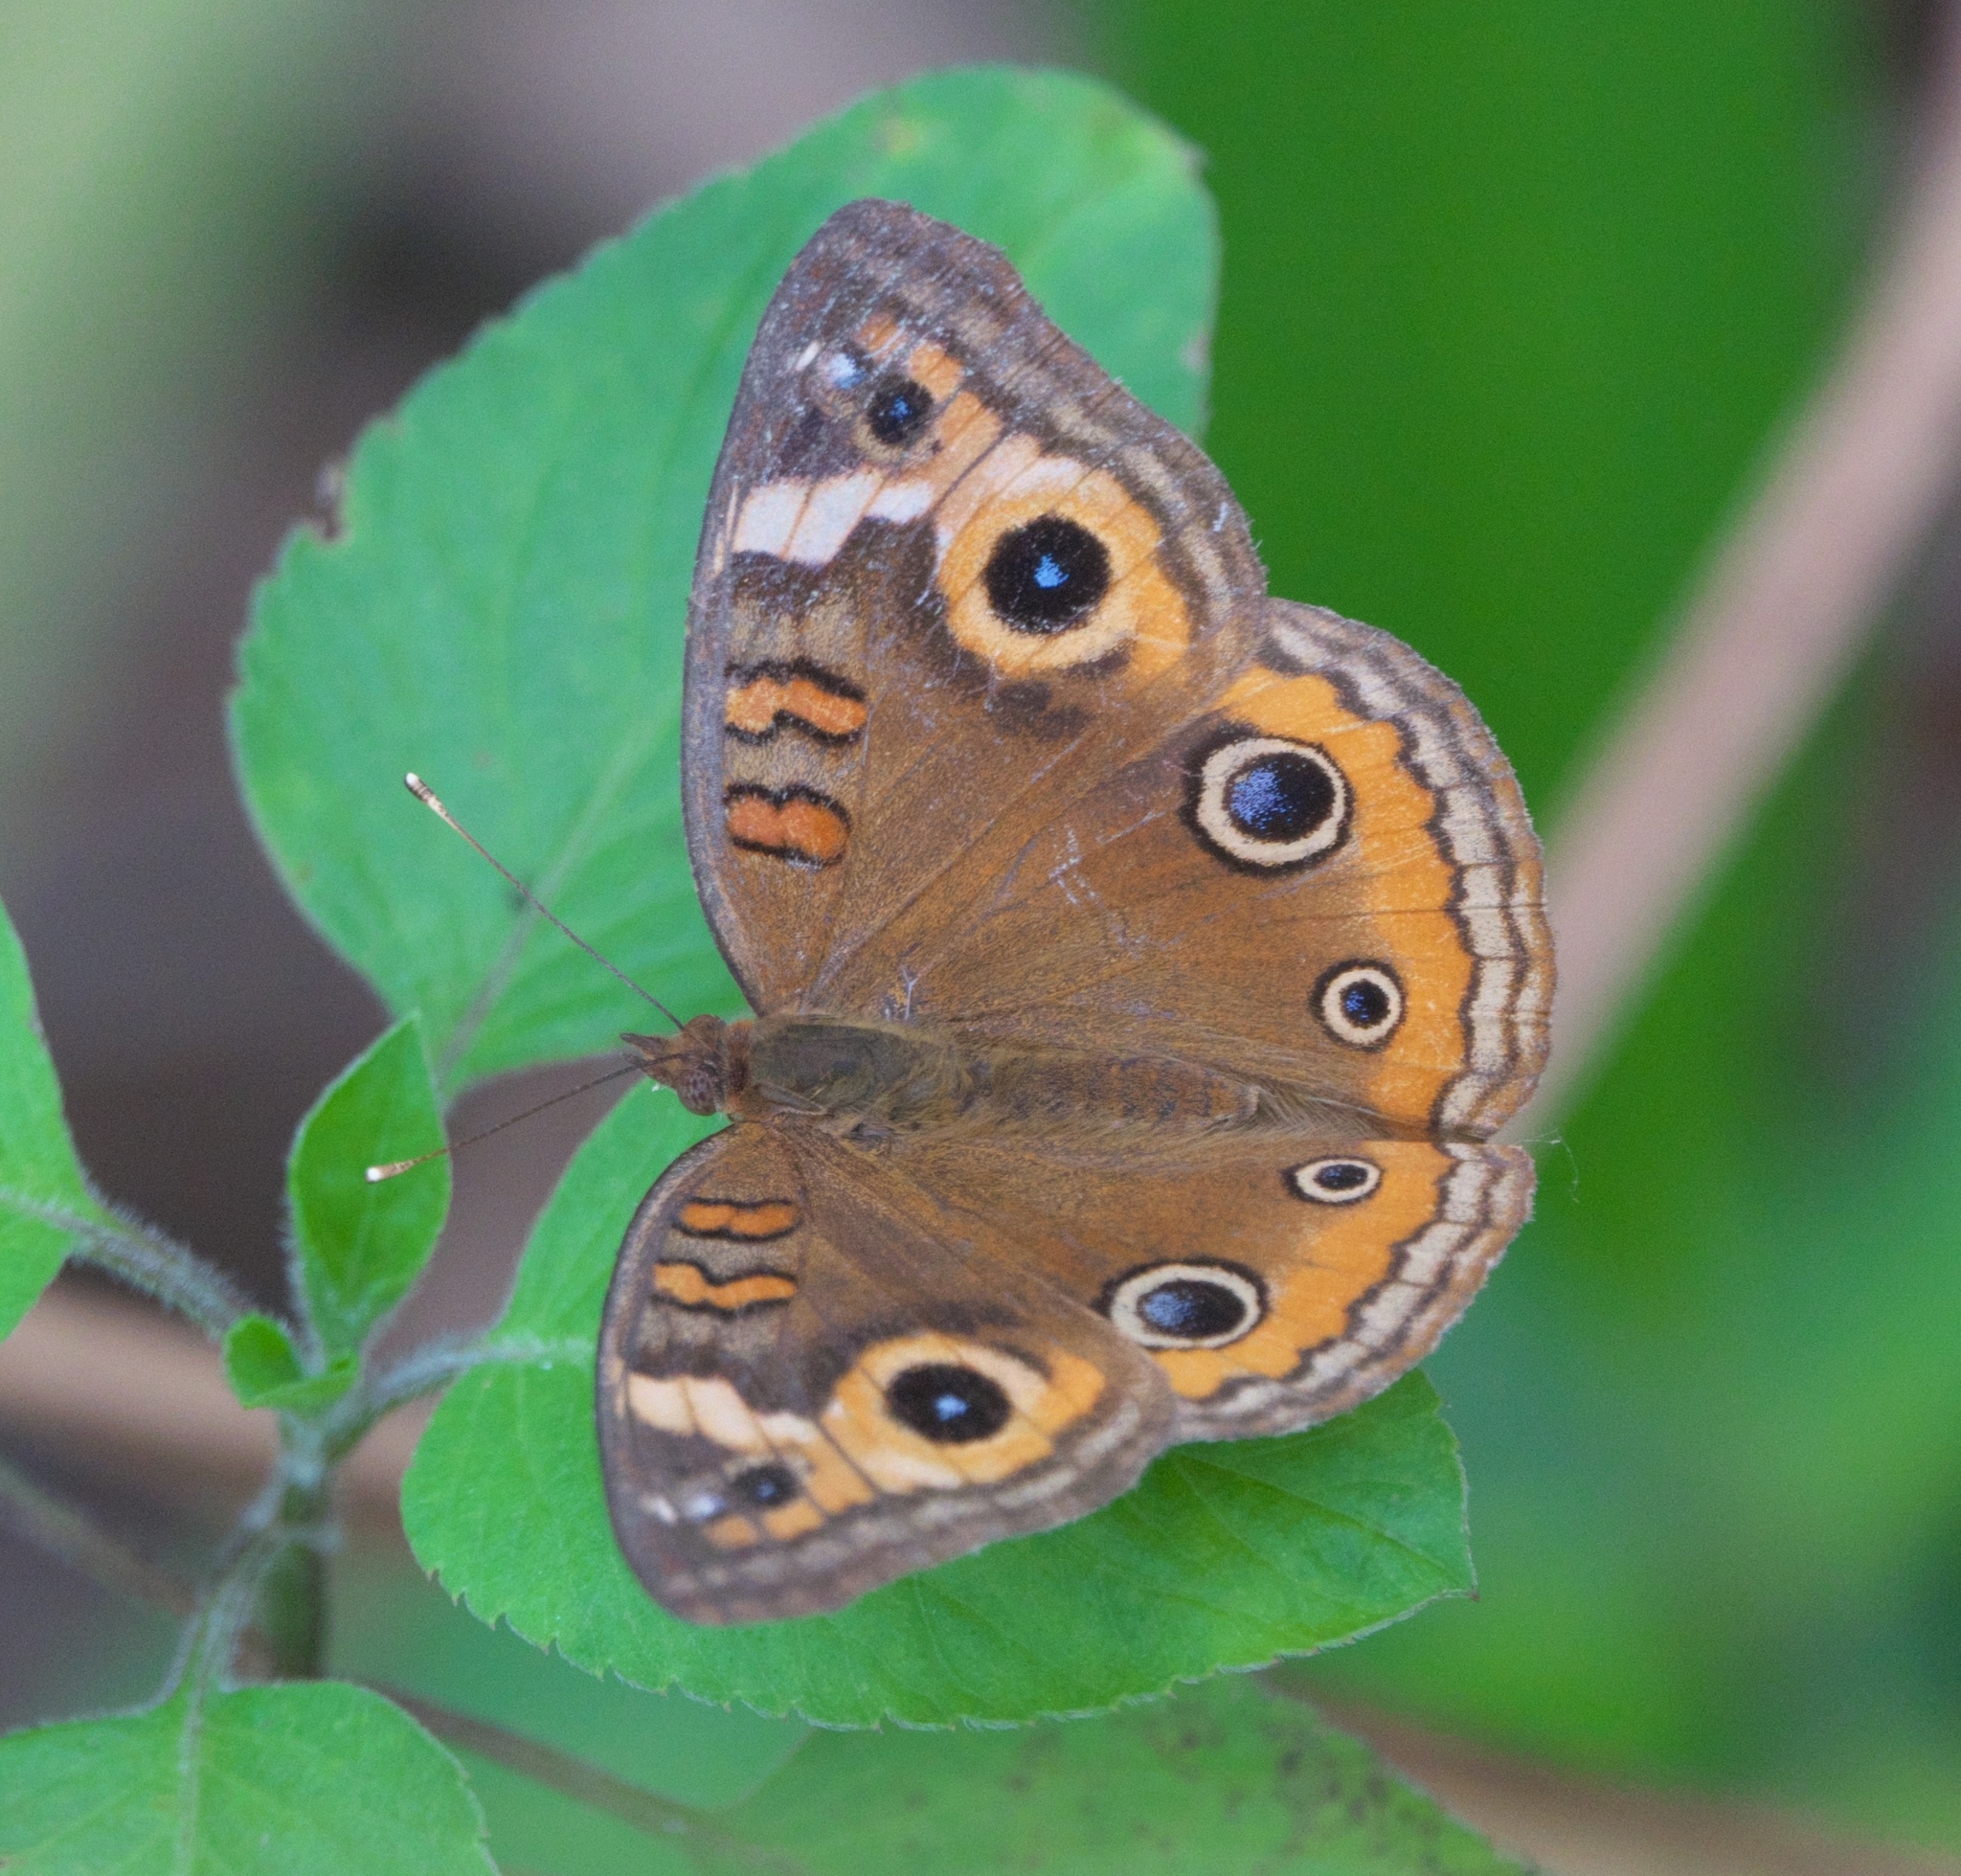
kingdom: Animalia
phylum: Arthropoda
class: Insecta
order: Lepidoptera
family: Nymphalidae
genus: Junonia
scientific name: Junonia neildi
